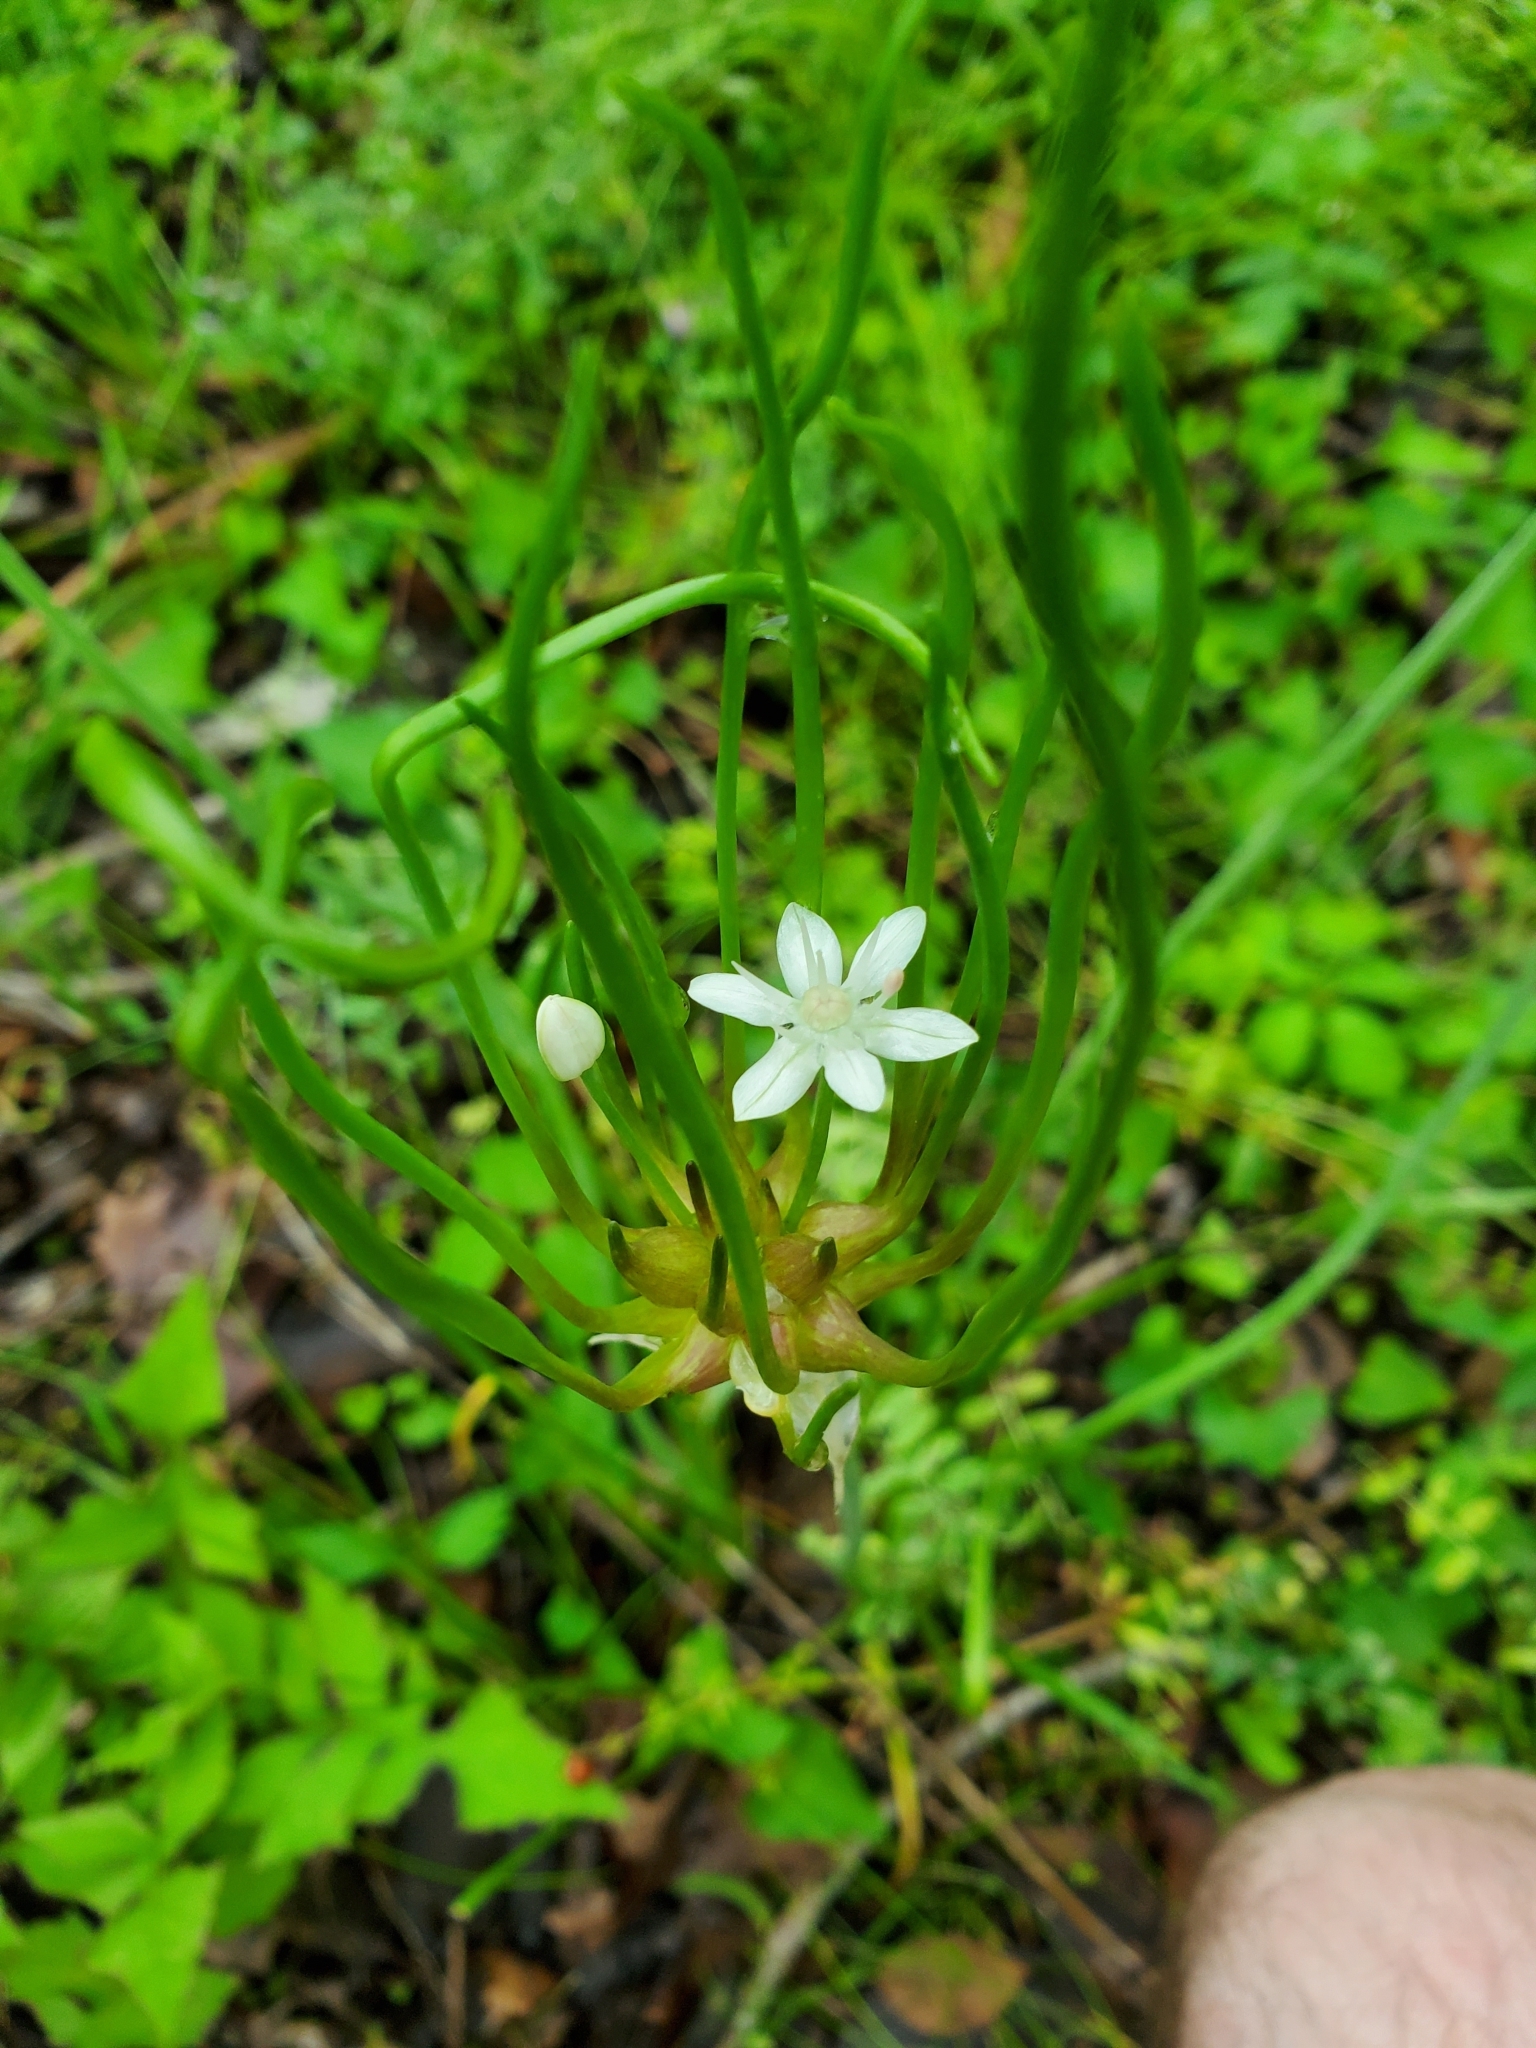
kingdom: Plantae
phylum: Tracheophyta
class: Liliopsida
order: Asparagales
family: Amaryllidaceae
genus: Allium
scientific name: Allium canadense
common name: Meadow garlic
